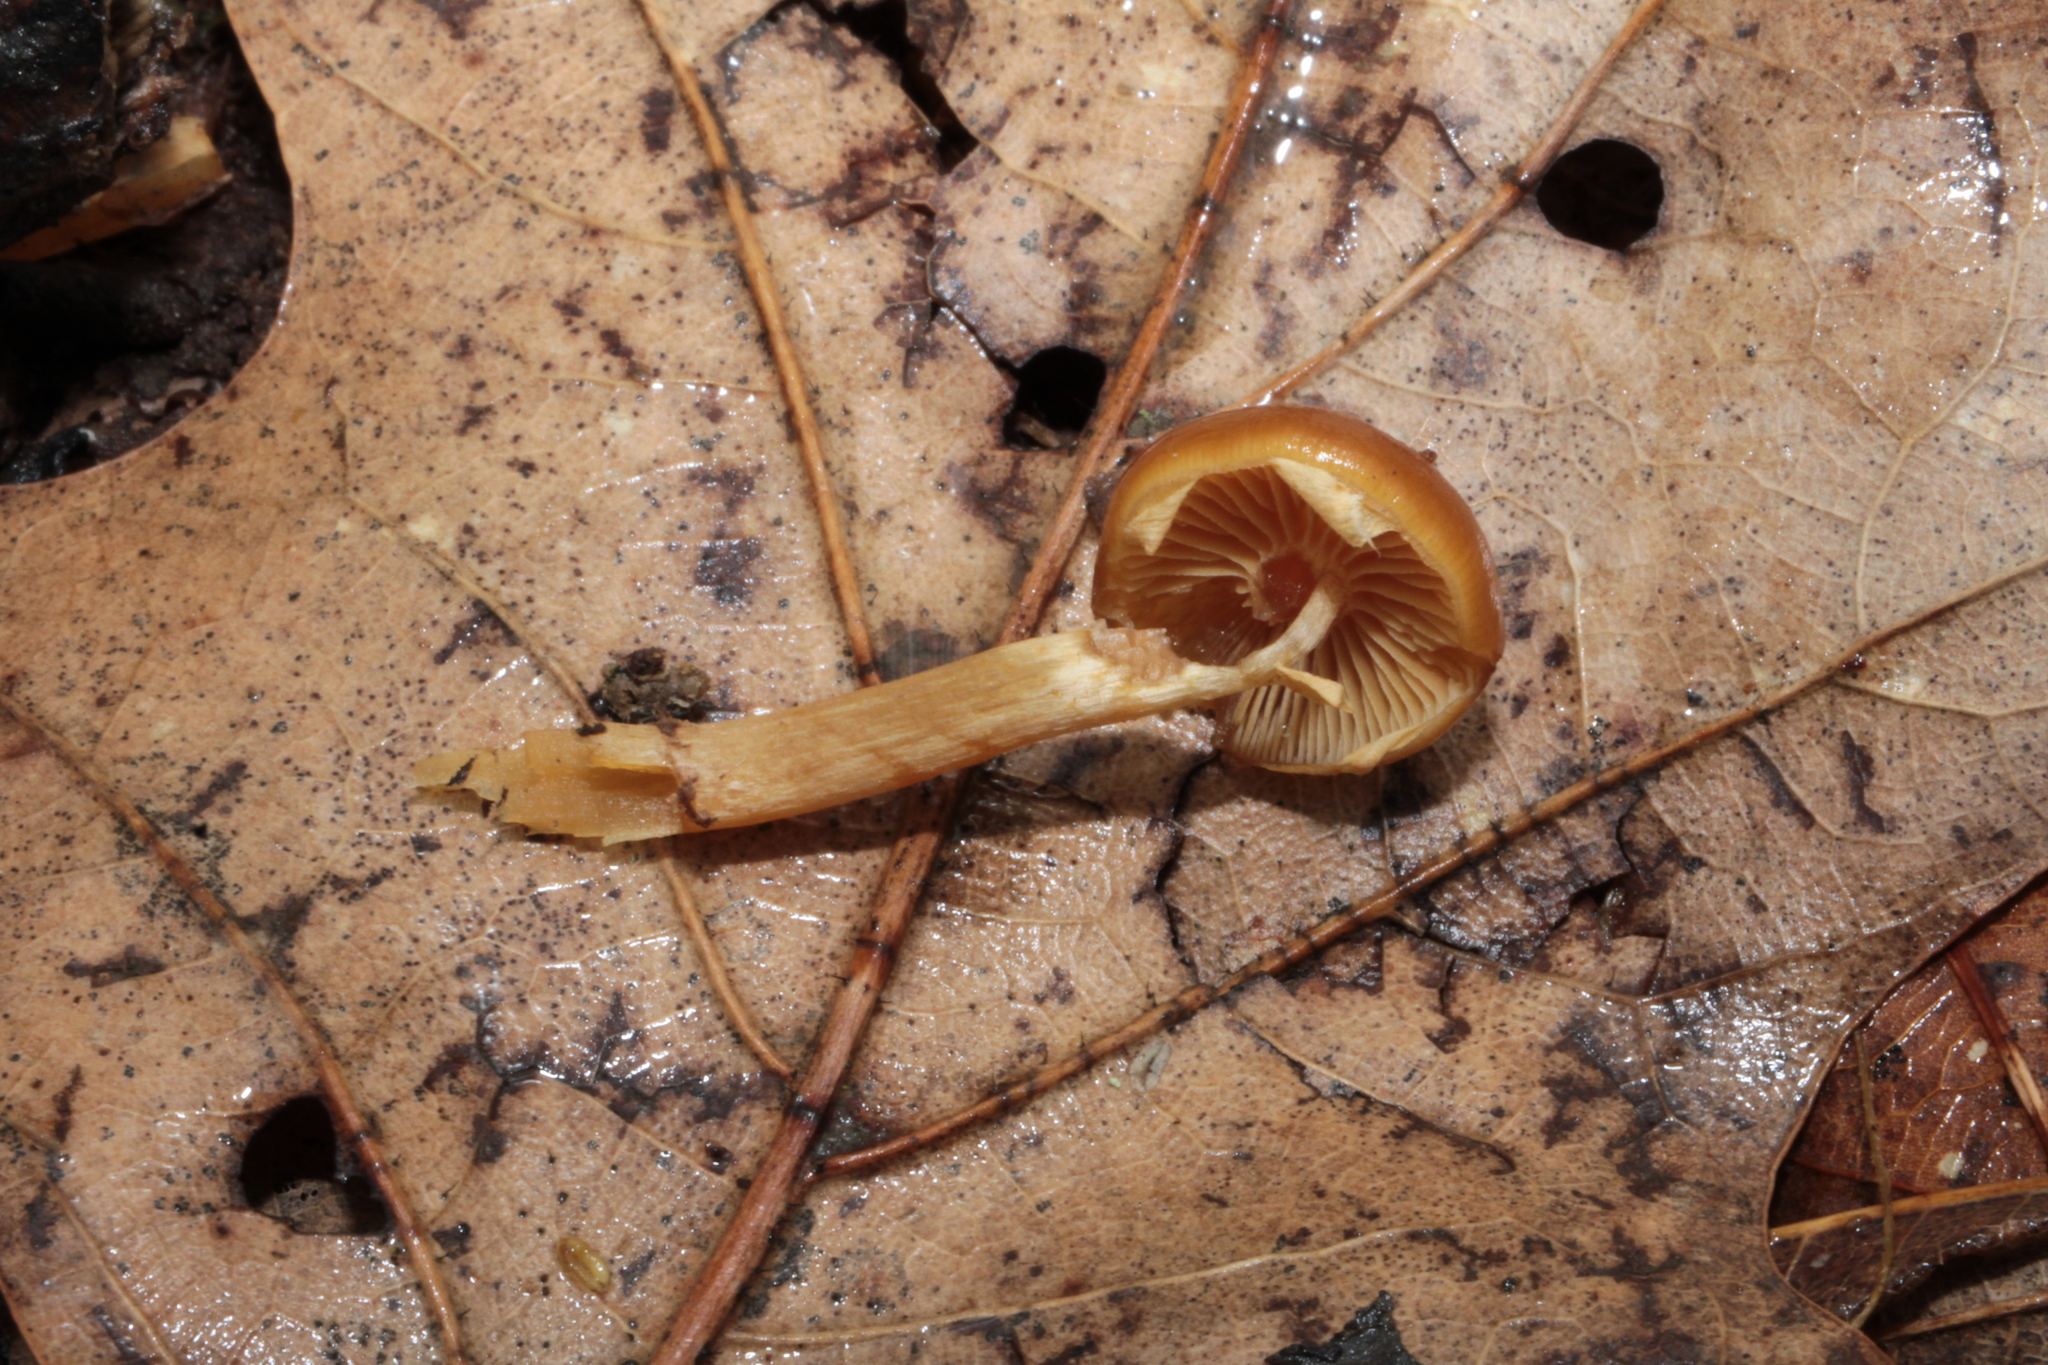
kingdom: Fungi
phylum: Basidiomycota
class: Agaricomycetes
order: Agaricales
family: Hymenogastraceae
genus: Galerina
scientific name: Galerina marginata
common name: Funeral bell
